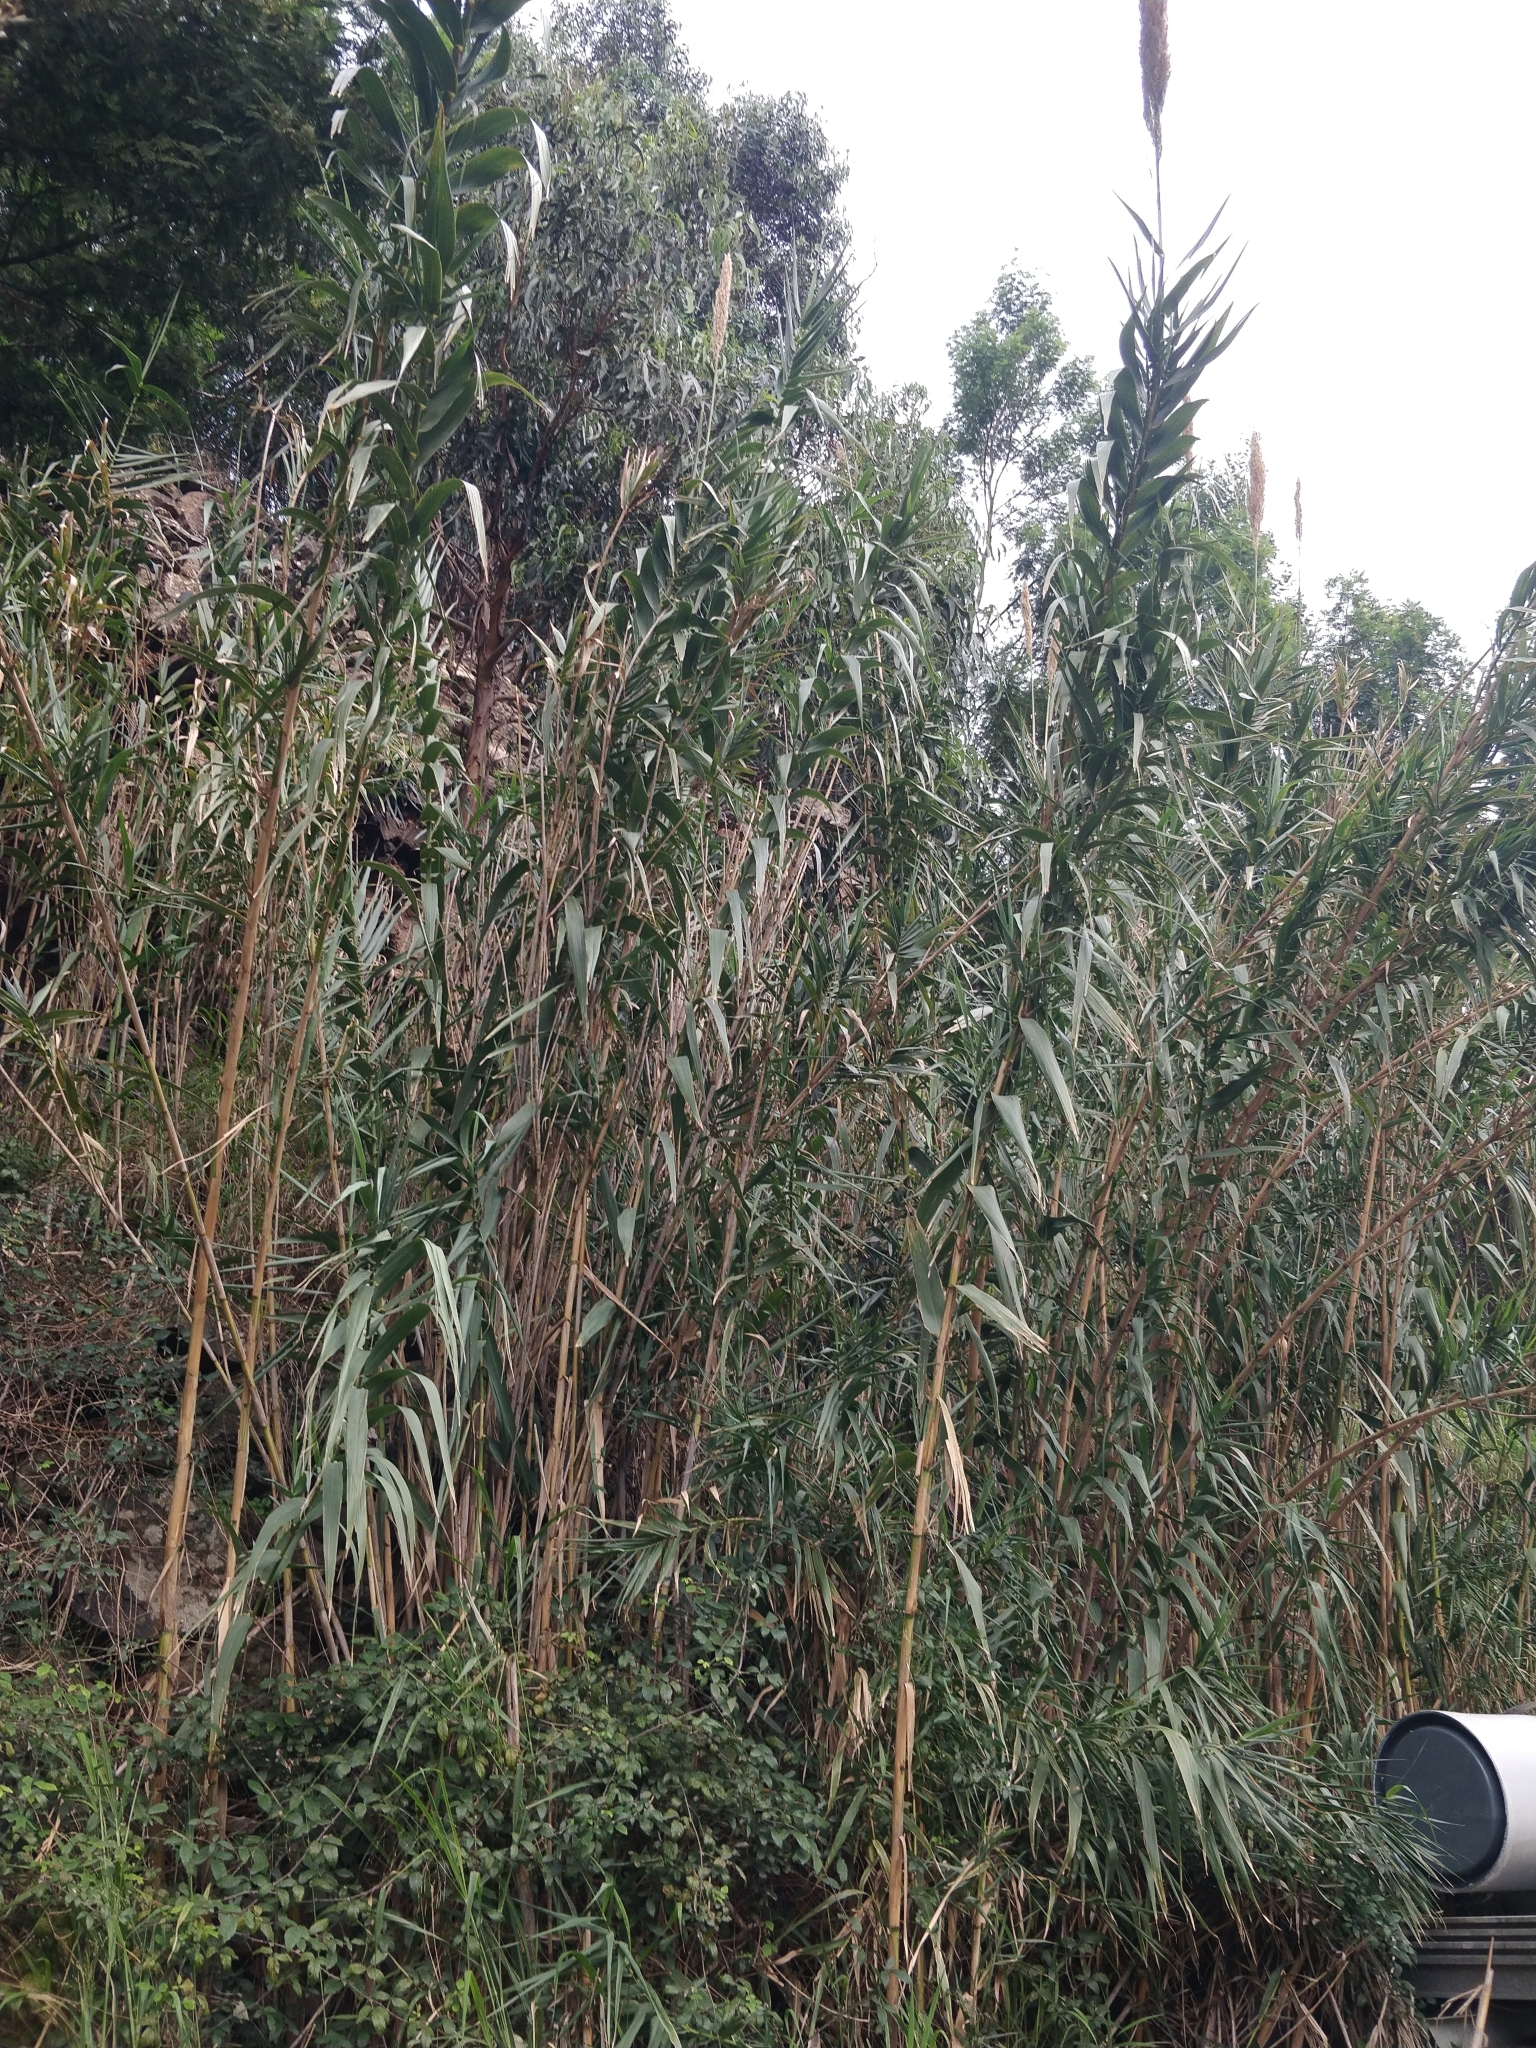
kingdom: Plantae
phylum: Tracheophyta
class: Liliopsida
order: Poales
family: Poaceae
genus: Arundo
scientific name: Arundo donax
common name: Giant reed
